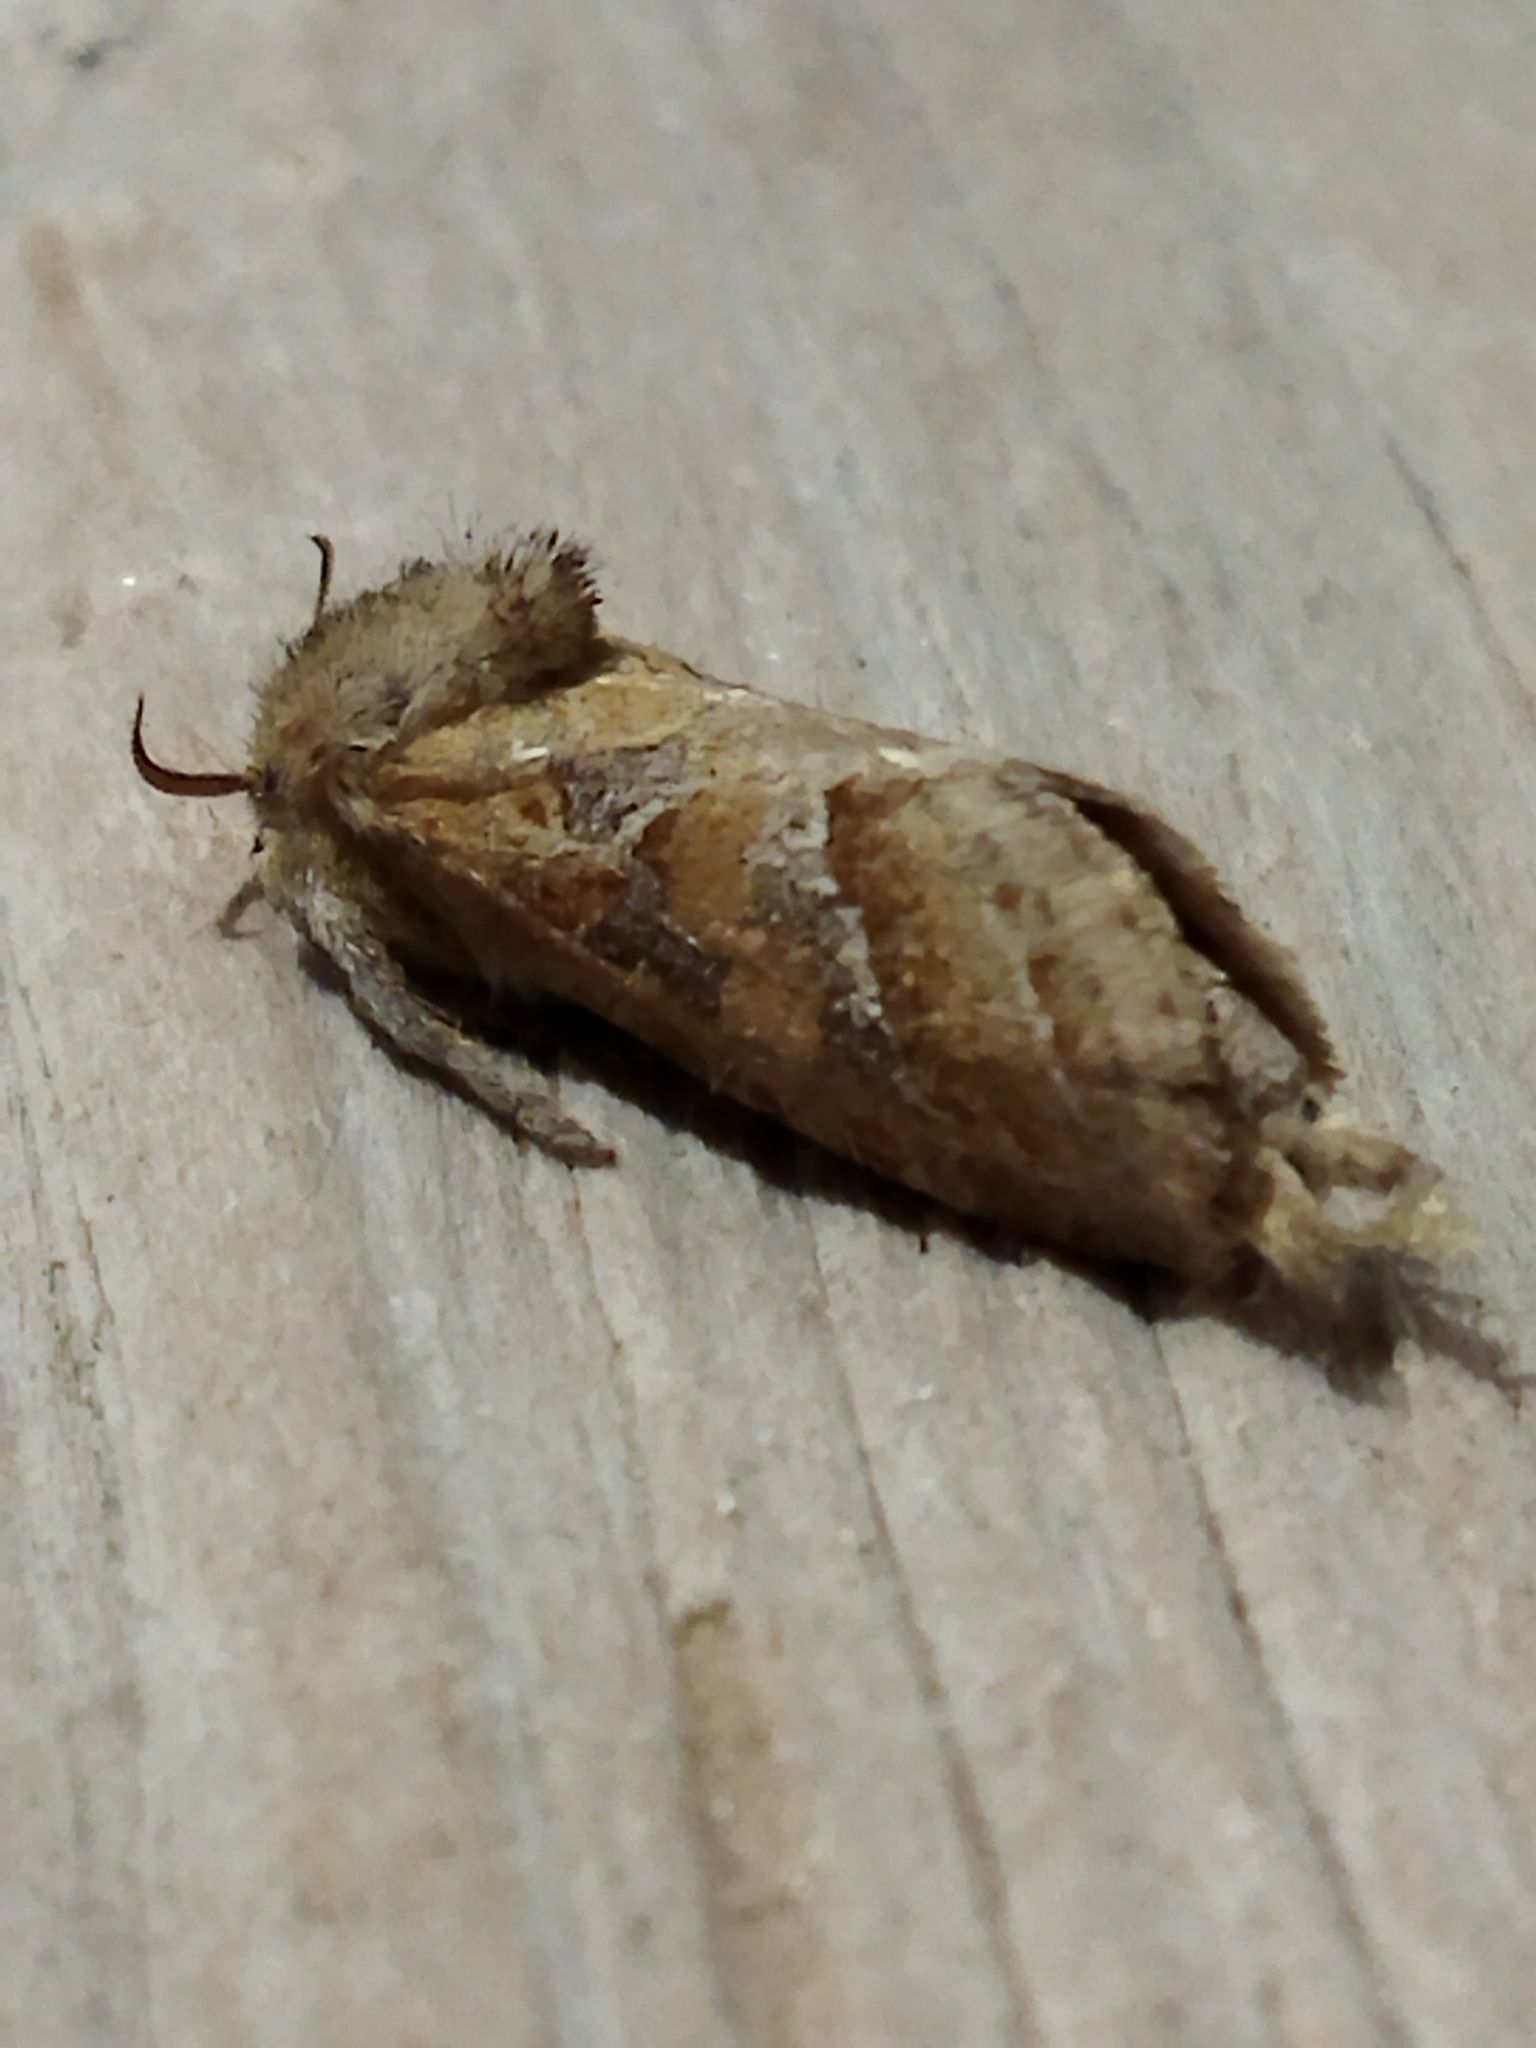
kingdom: Animalia
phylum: Arthropoda
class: Insecta
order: Lepidoptera
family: Hepialidae
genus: Triodia
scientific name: Triodia amasinus
